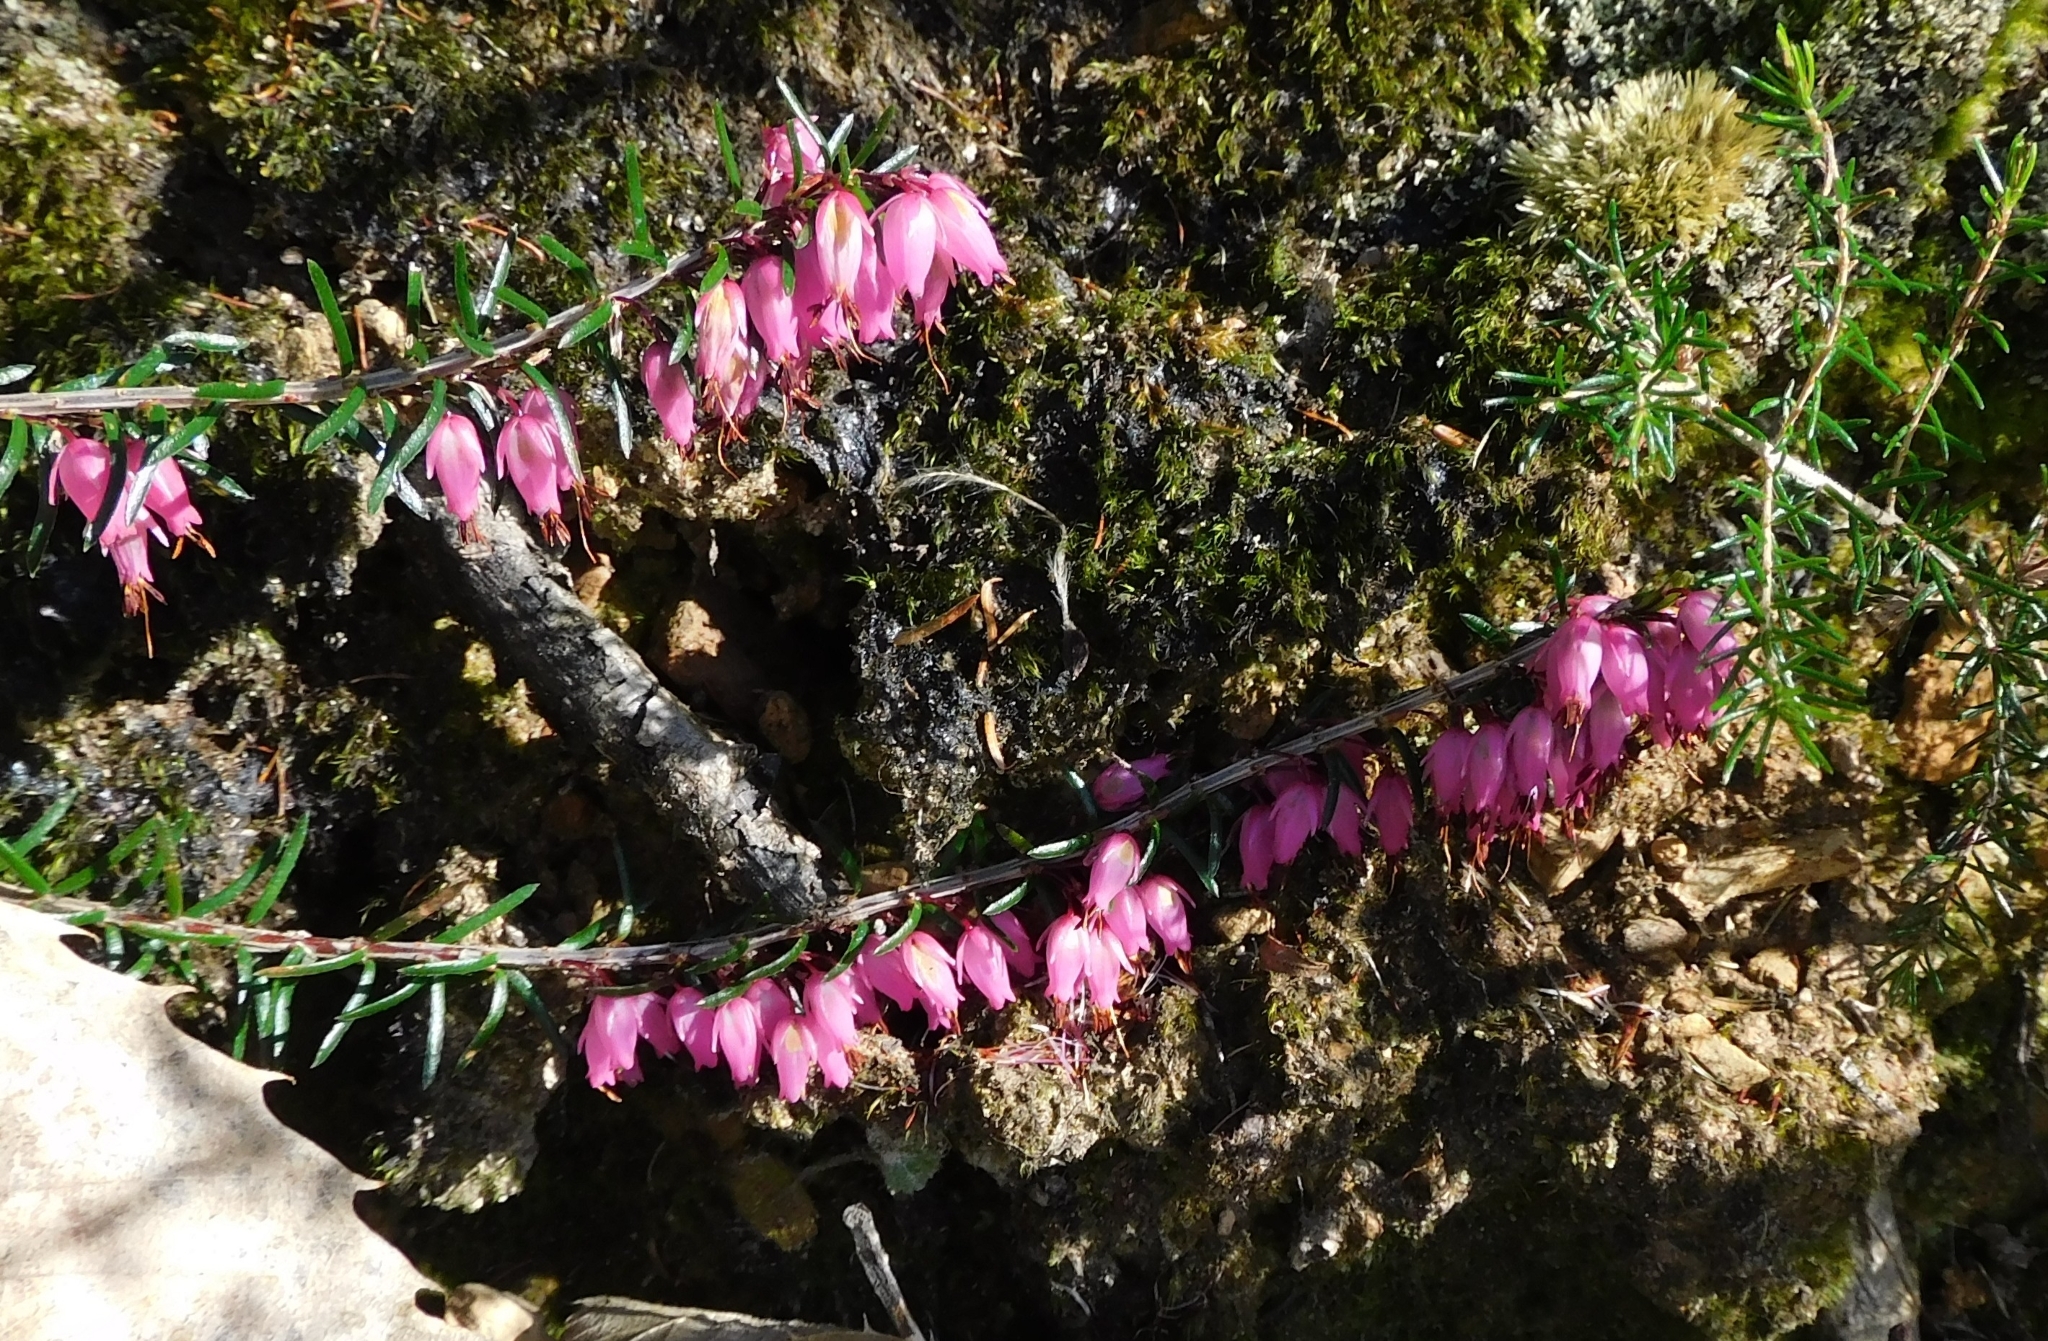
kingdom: Plantae
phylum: Tracheophyta
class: Magnoliopsida
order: Ericales
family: Ericaceae
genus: Erica
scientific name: Erica carnea
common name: Winter heath
